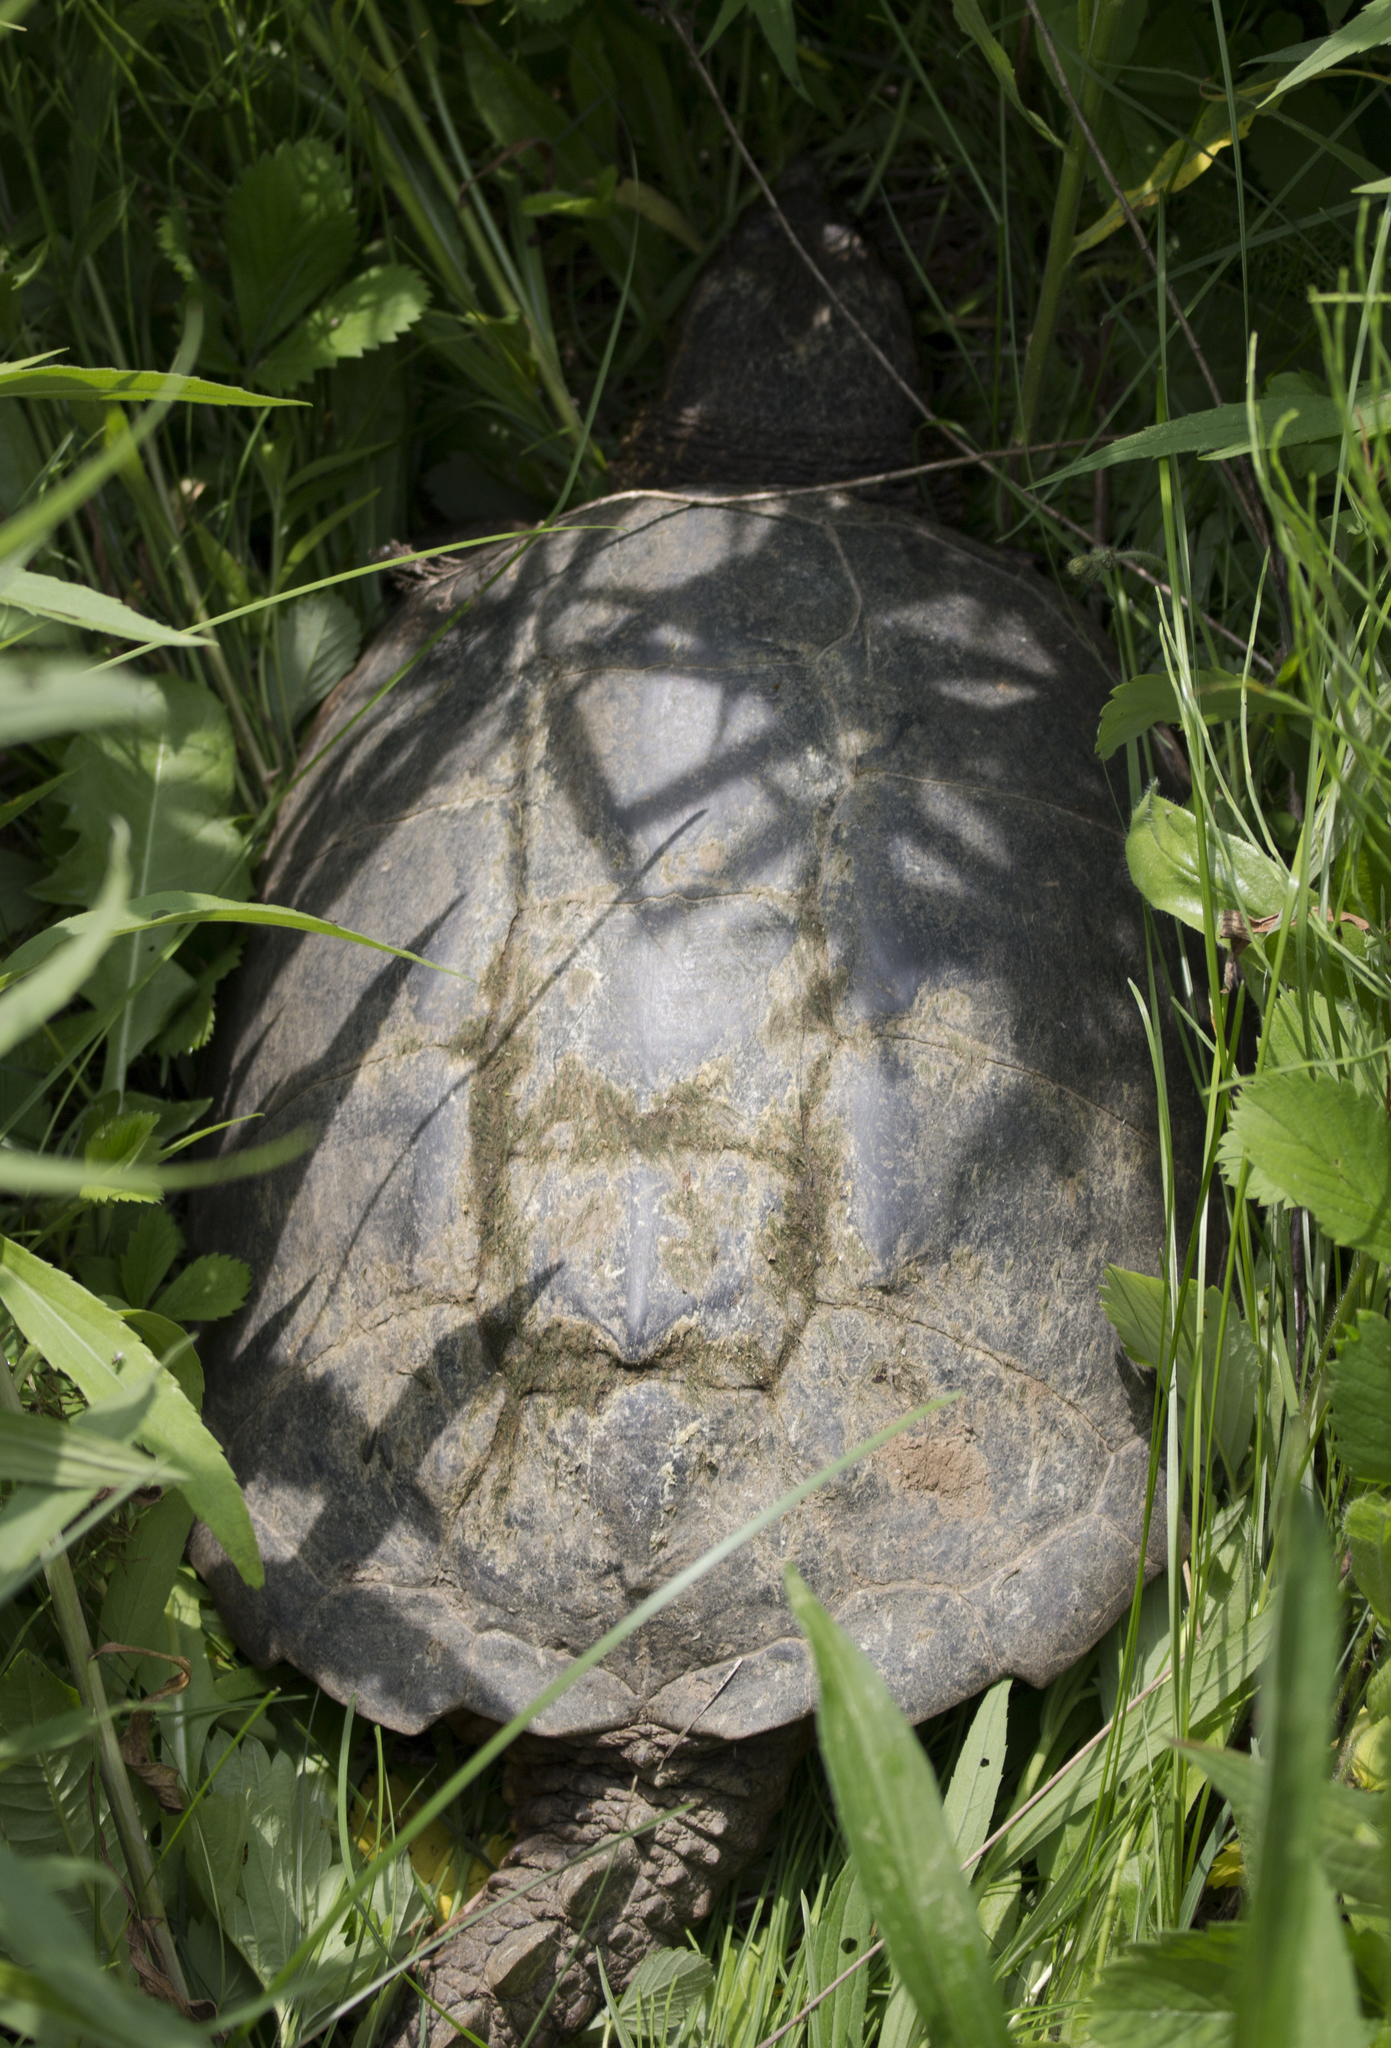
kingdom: Animalia
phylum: Chordata
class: Testudines
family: Chelydridae
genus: Chelydra
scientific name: Chelydra serpentina
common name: Common snapping turtle
